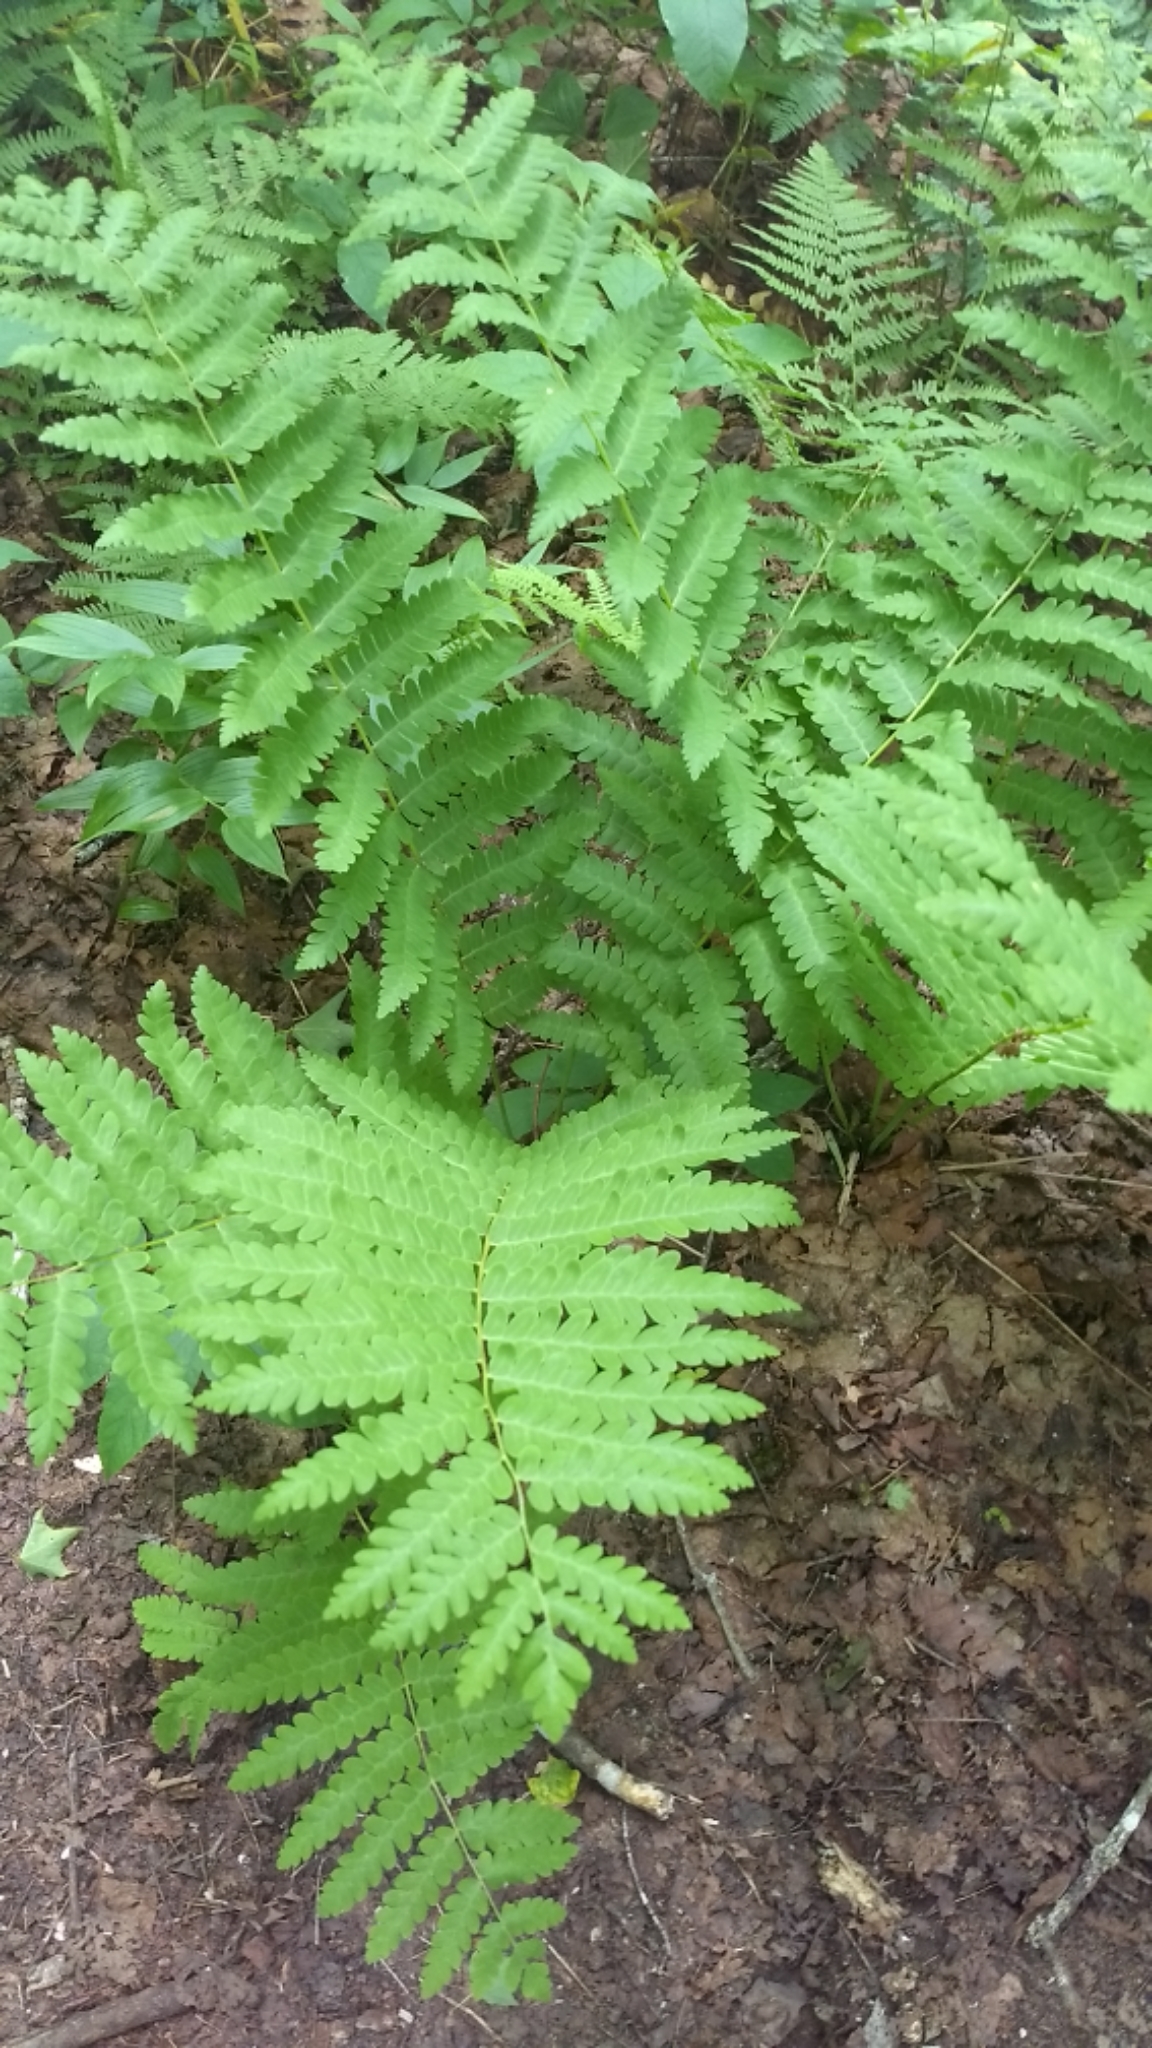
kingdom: Plantae
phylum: Tracheophyta
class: Polypodiopsida
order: Osmundales
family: Osmundaceae
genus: Claytosmunda
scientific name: Claytosmunda claytoniana
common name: Clayton's fern
